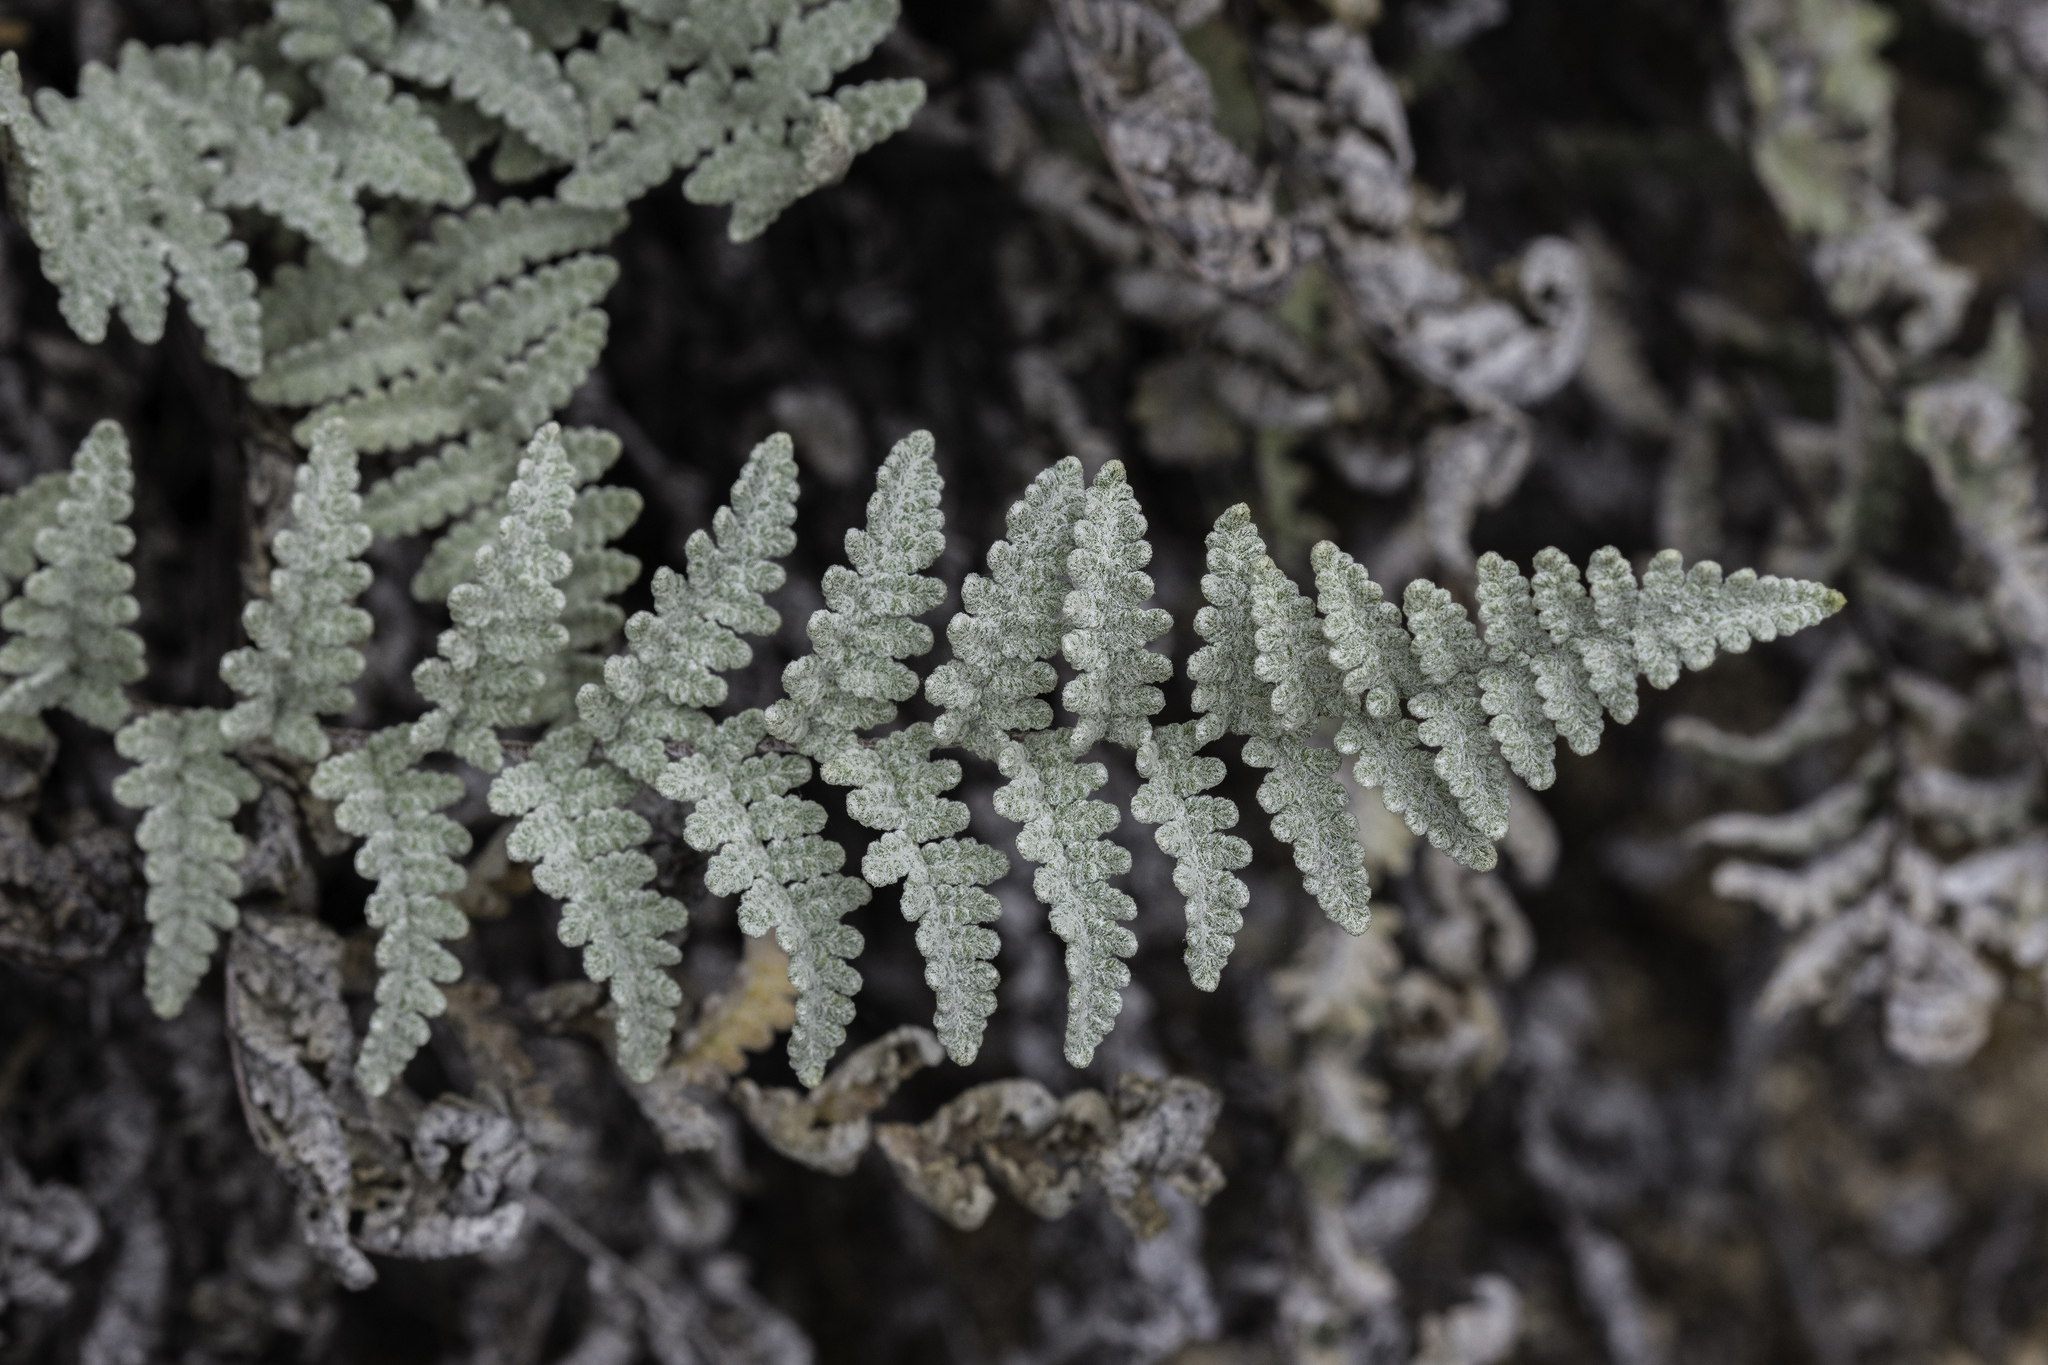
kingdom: Plantae
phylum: Tracheophyta
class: Polypodiopsida
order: Polypodiales
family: Pteridaceae
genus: Myriopteris
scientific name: Myriopteris rufa
